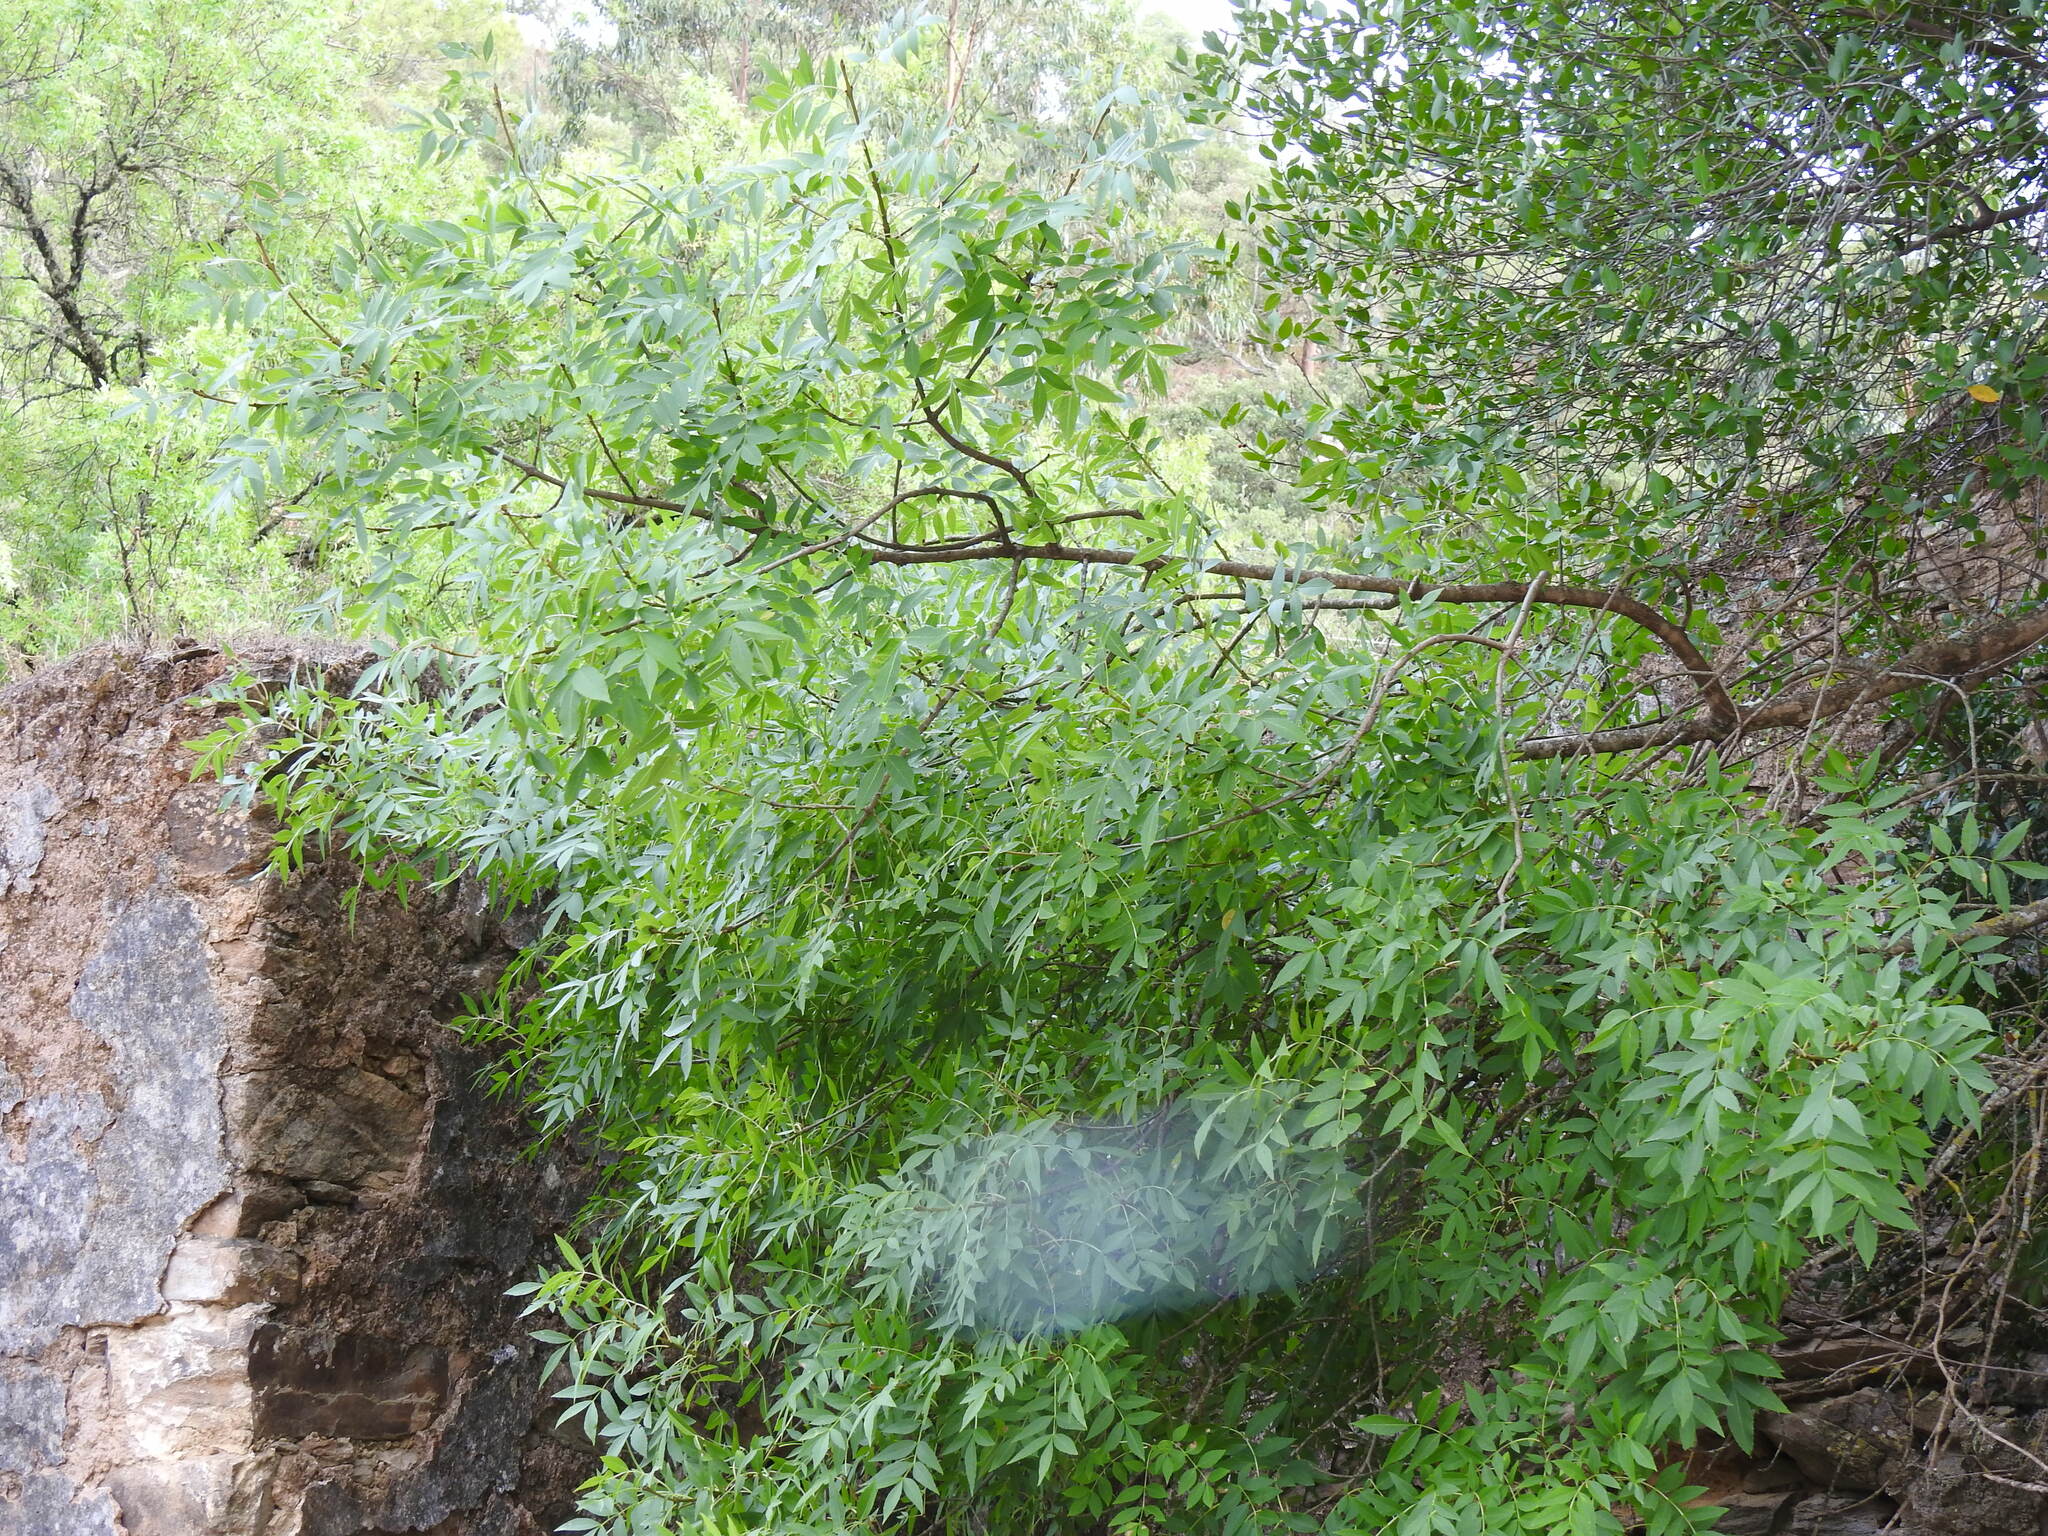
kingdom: Plantae
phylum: Tracheophyta
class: Magnoliopsida
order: Lamiales
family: Oleaceae
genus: Fraxinus
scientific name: Fraxinus angustifolia
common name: Narrow-leafed ash
